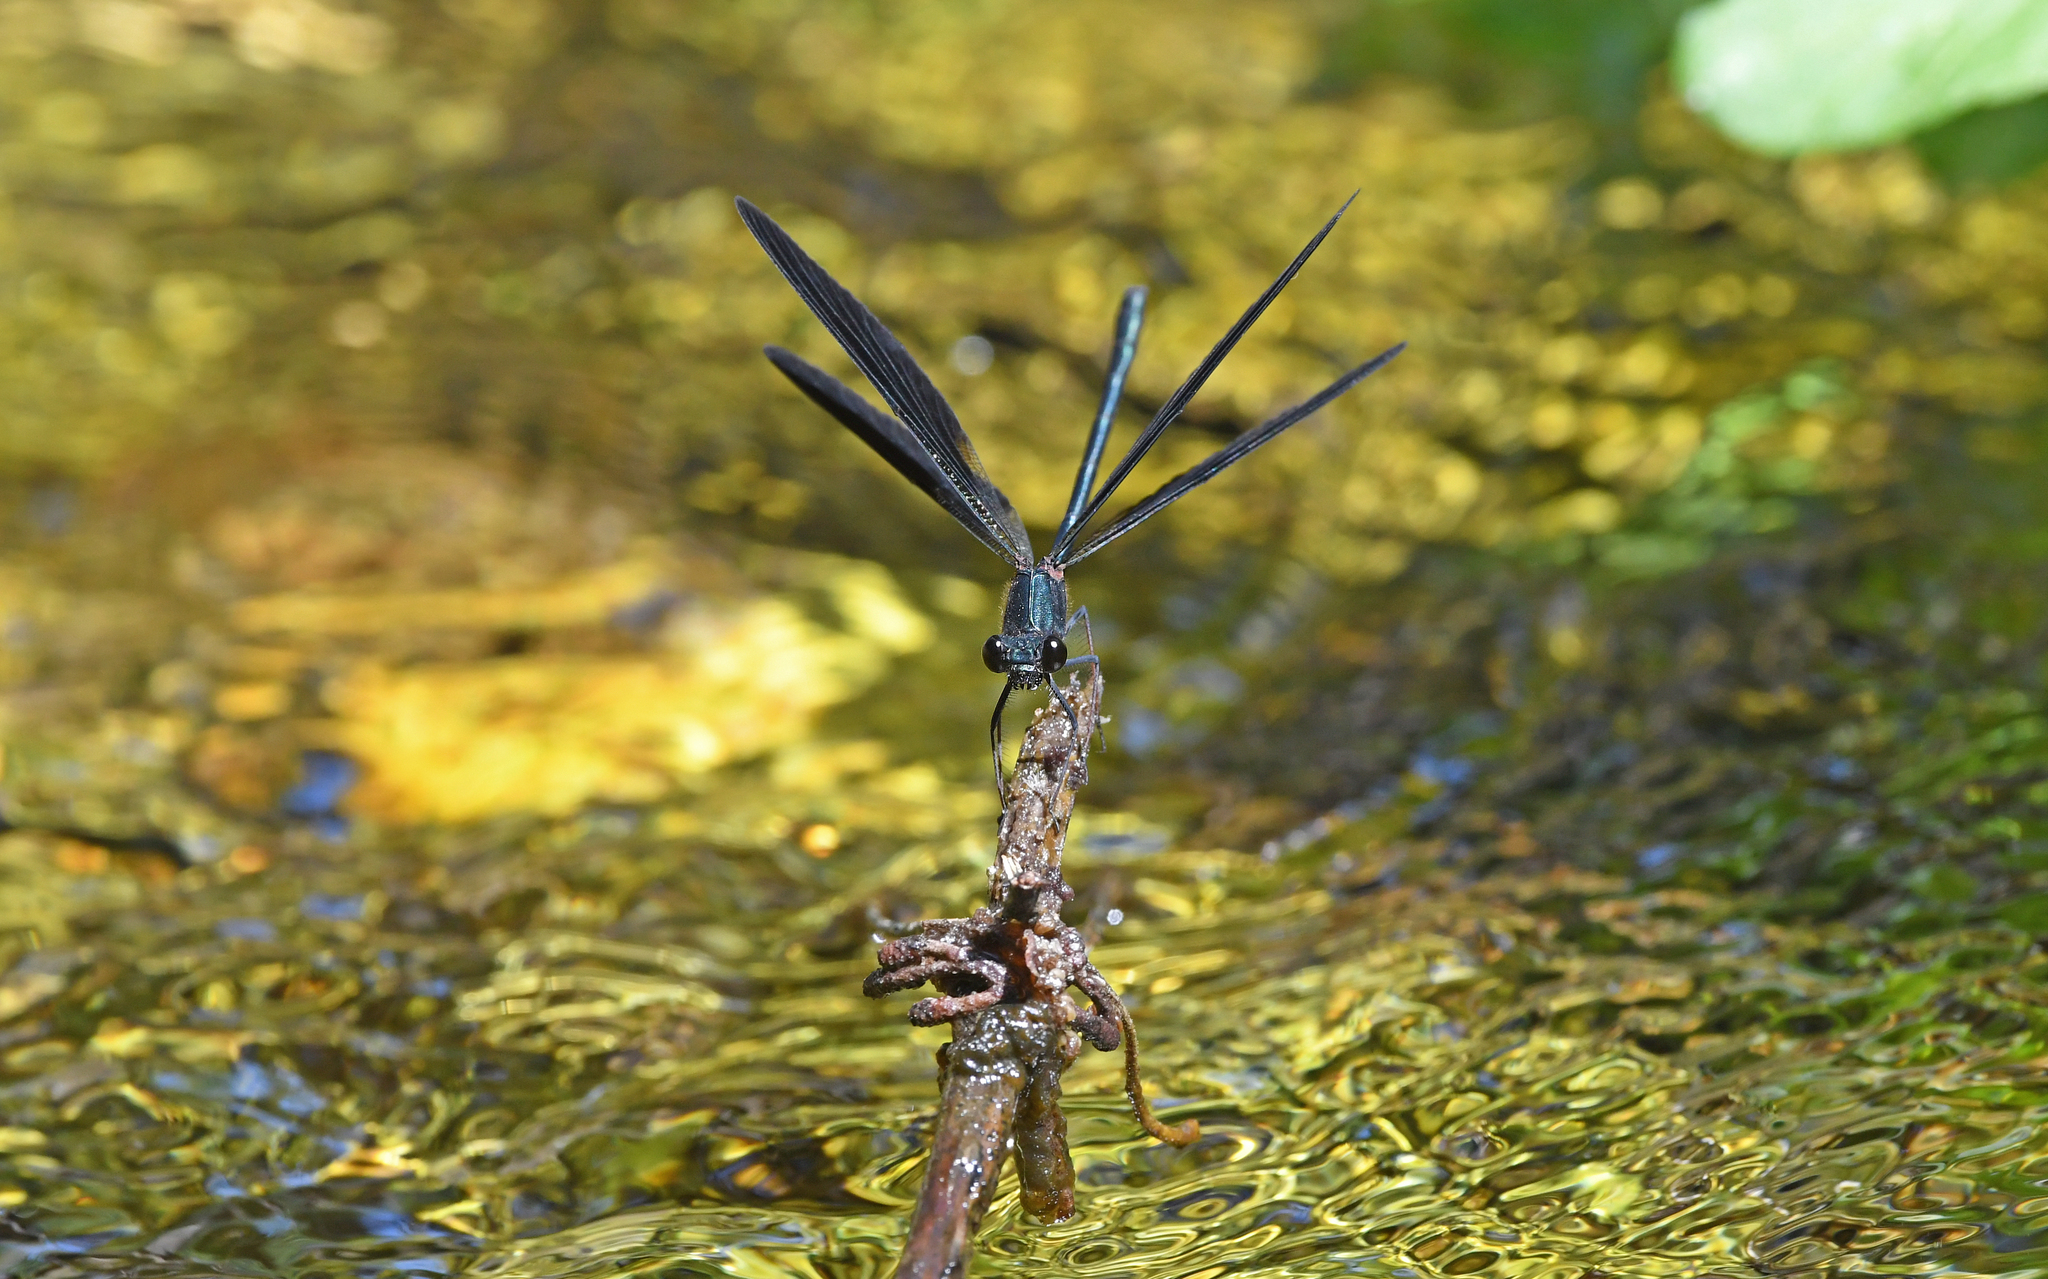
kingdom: Animalia
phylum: Arthropoda
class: Insecta
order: Odonata
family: Calopterygidae
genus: Calopteryx
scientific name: Calopteryx haemorrhoidalis
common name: Copper demoiselle
